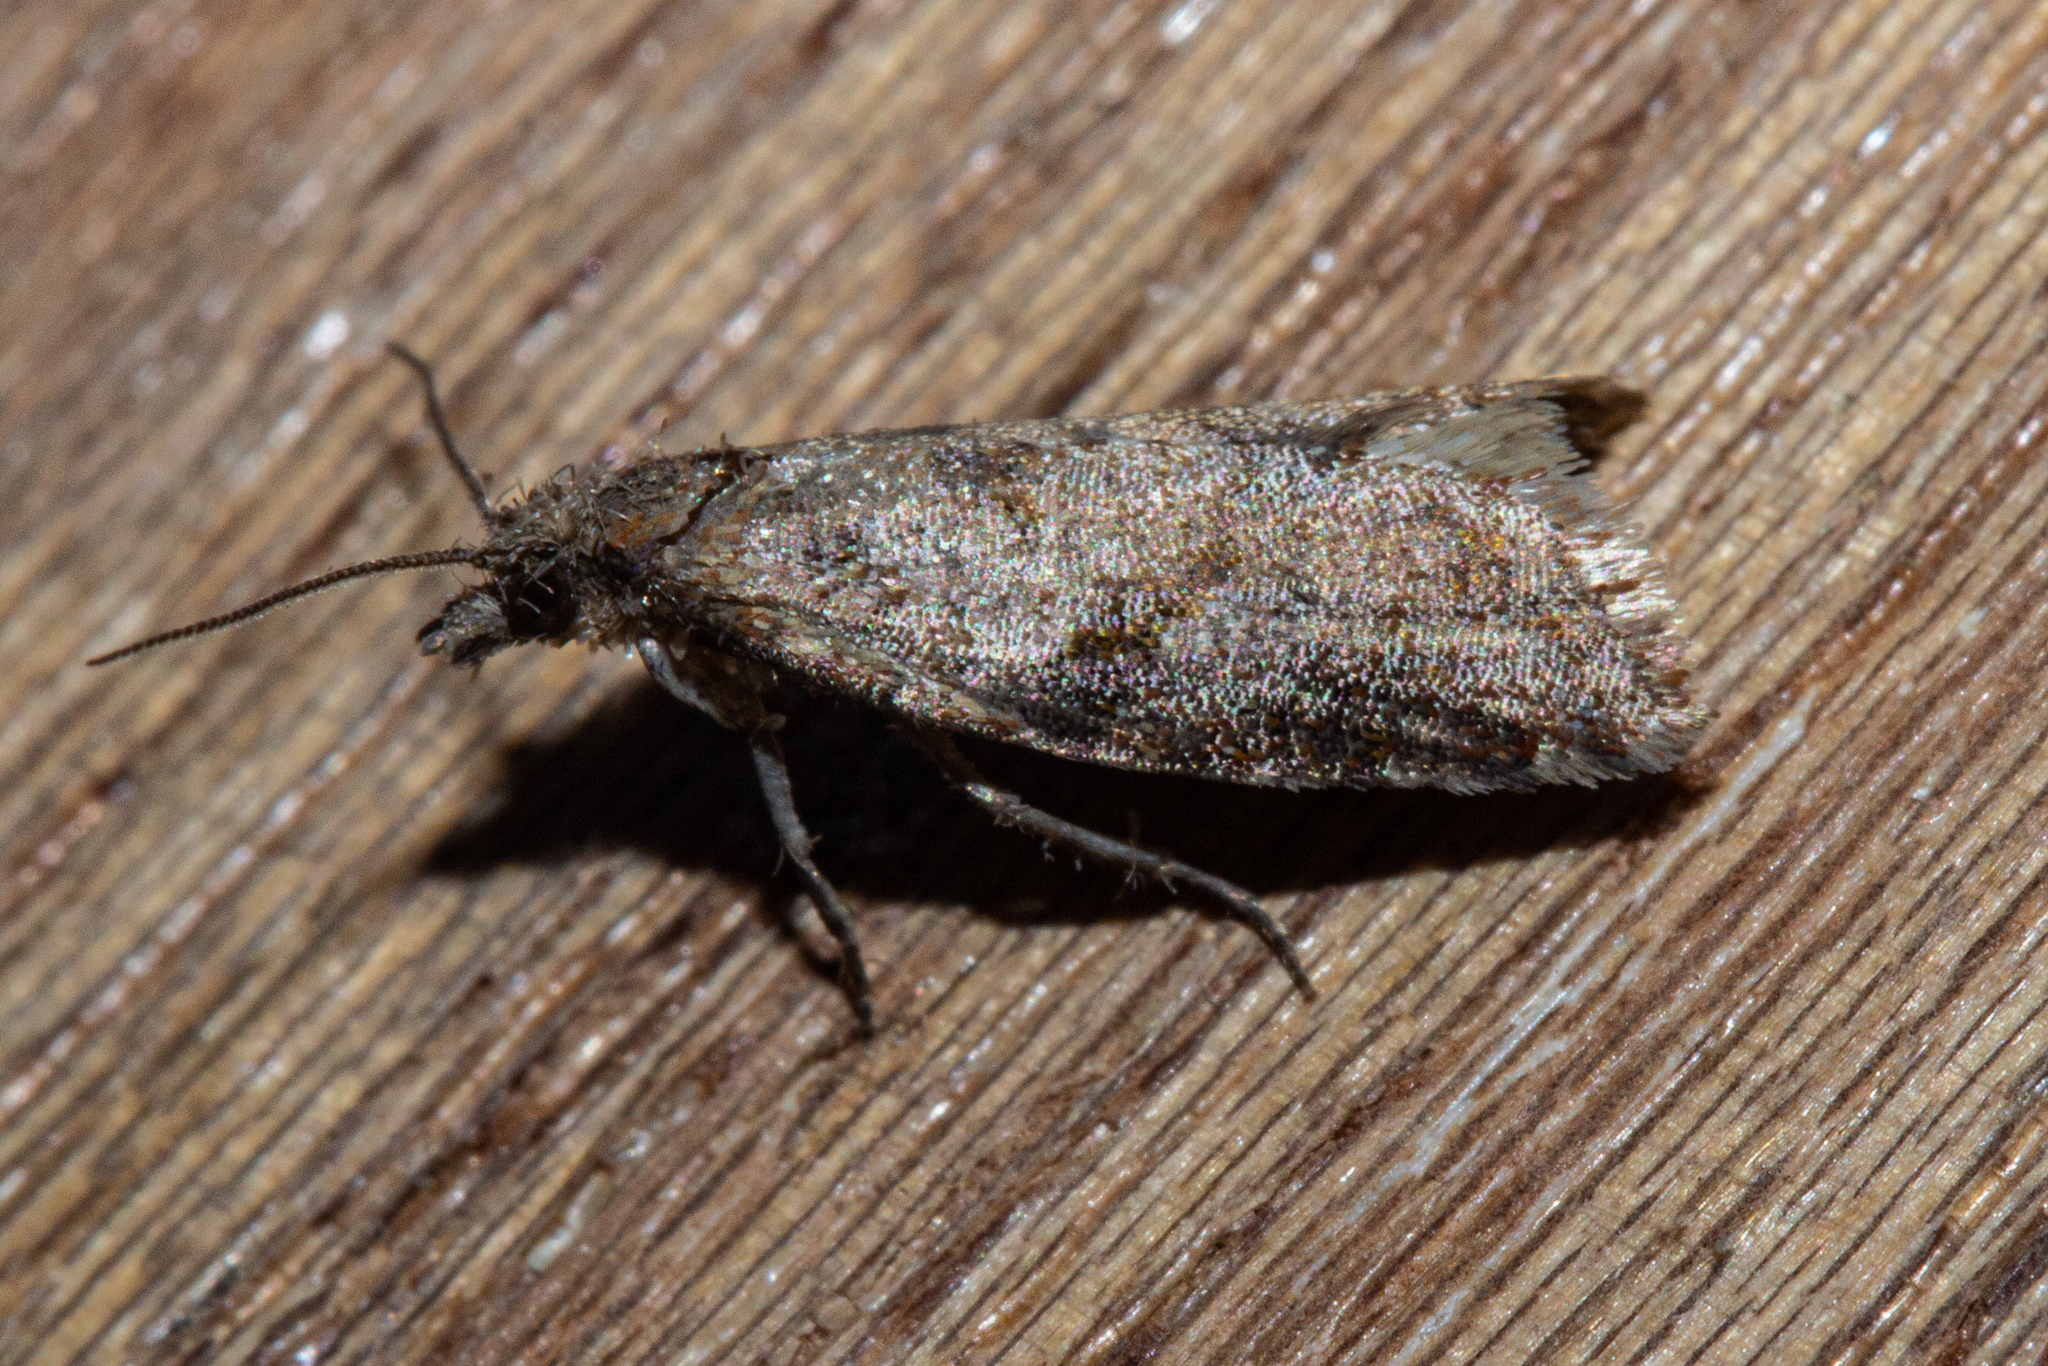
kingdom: Animalia
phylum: Arthropoda
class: Insecta
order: Lepidoptera
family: Tortricidae
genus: Capua
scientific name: Capua semiferana
